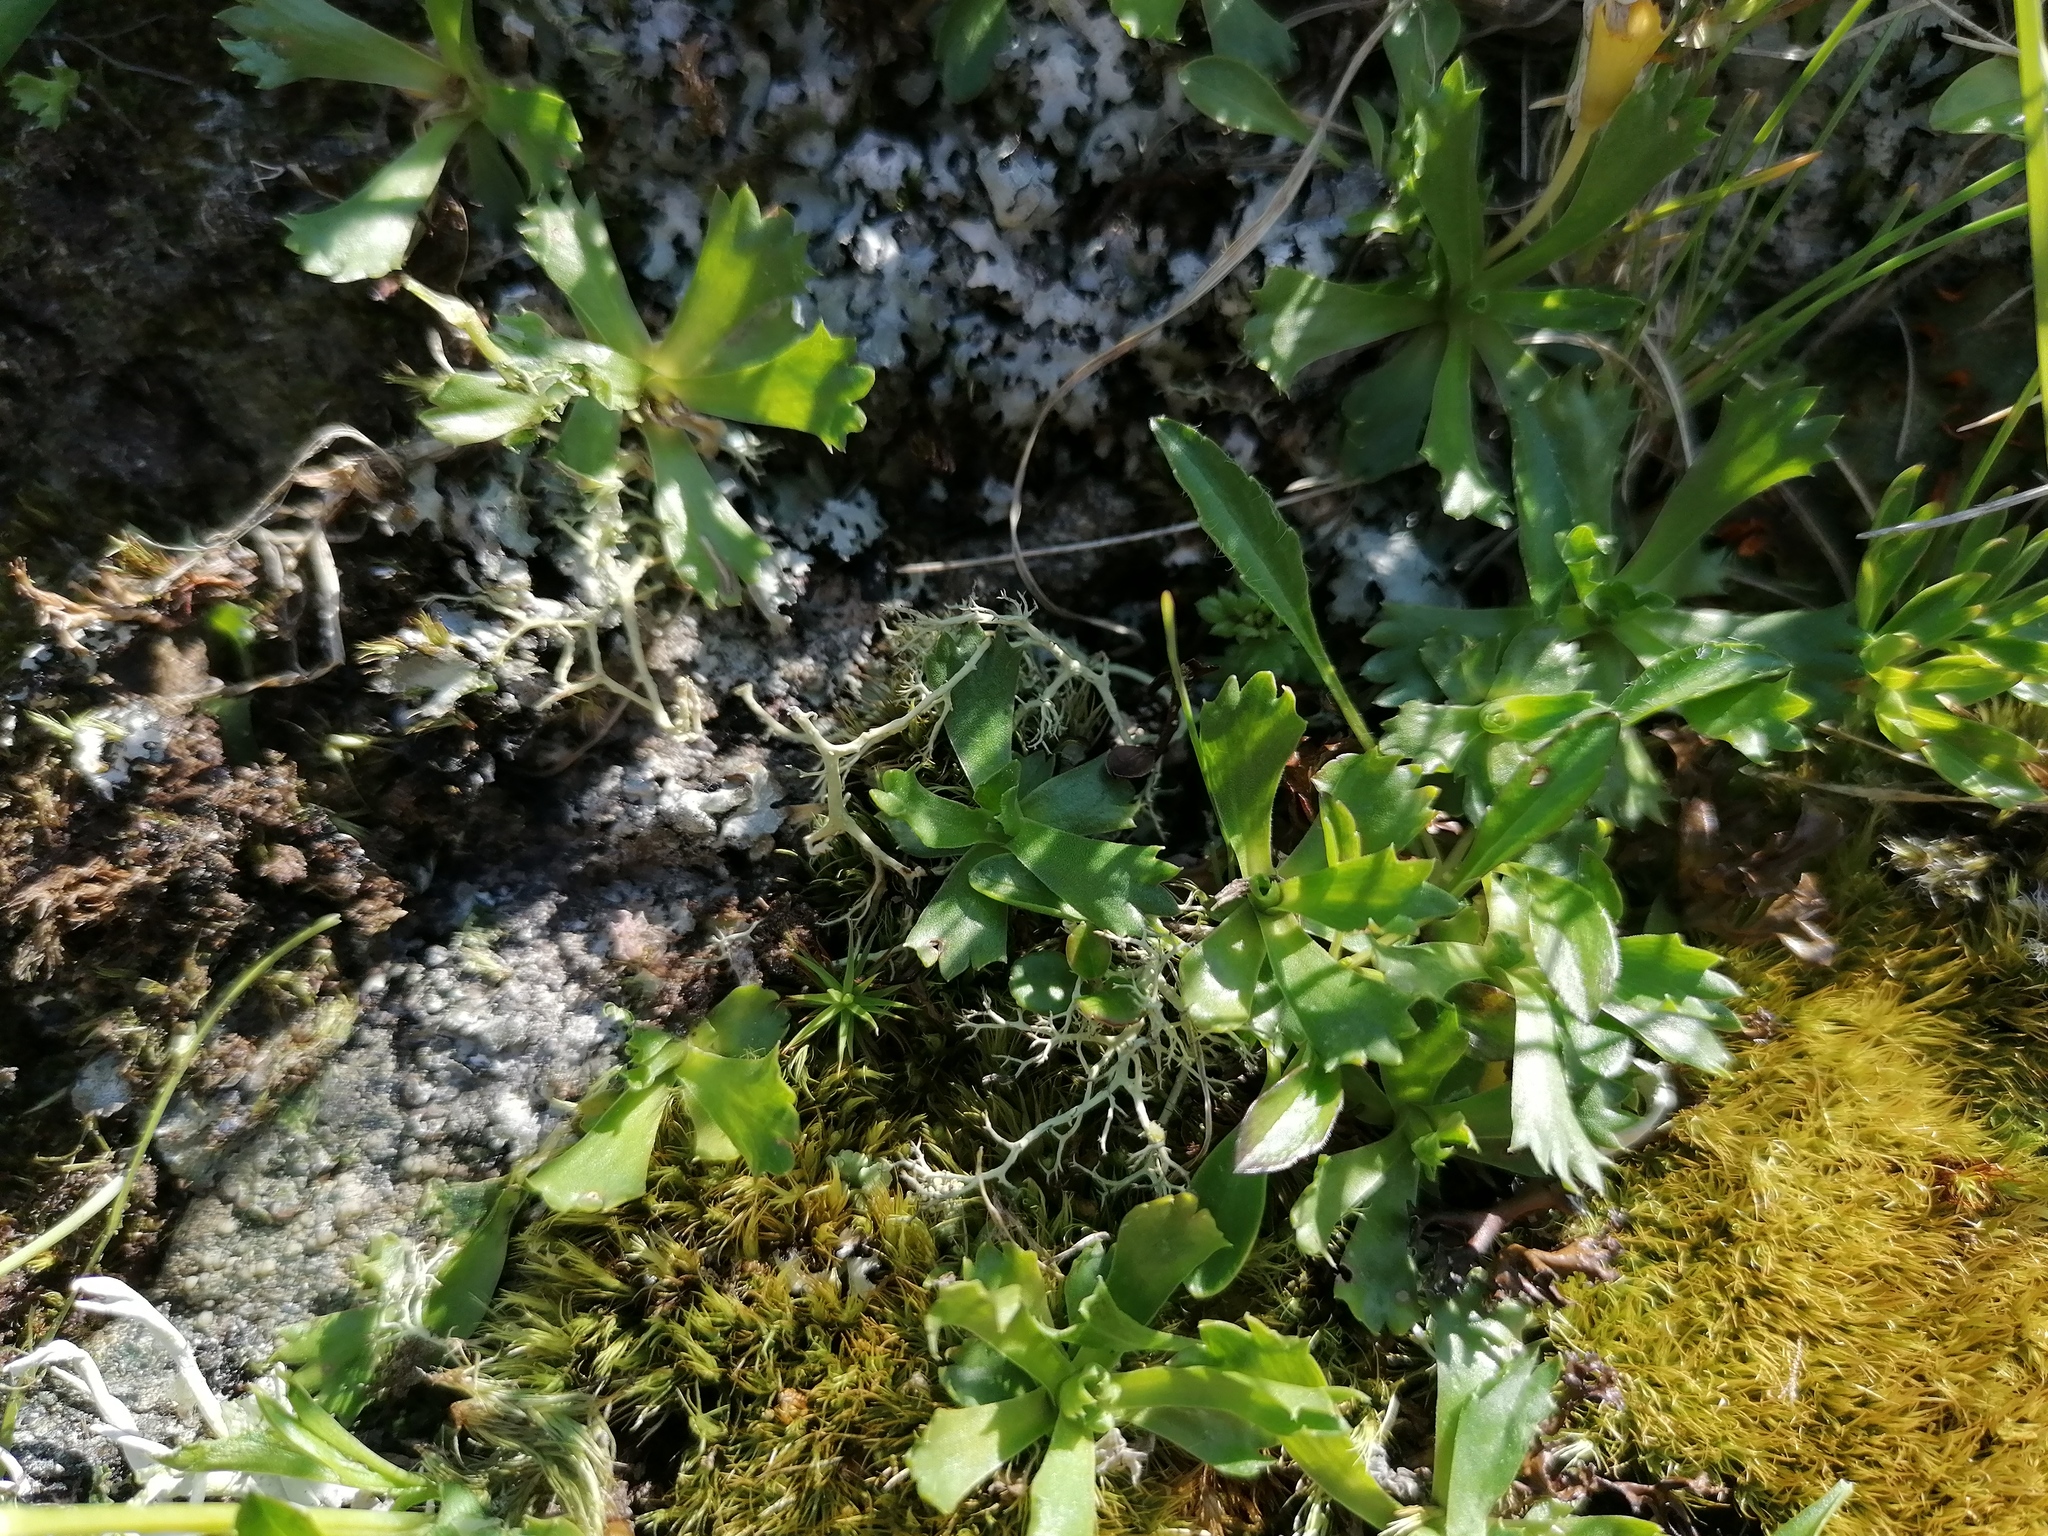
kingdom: Plantae
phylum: Tracheophyta
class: Magnoliopsida
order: Ericales
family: Primulaceae
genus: Primula
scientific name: Primula minima
